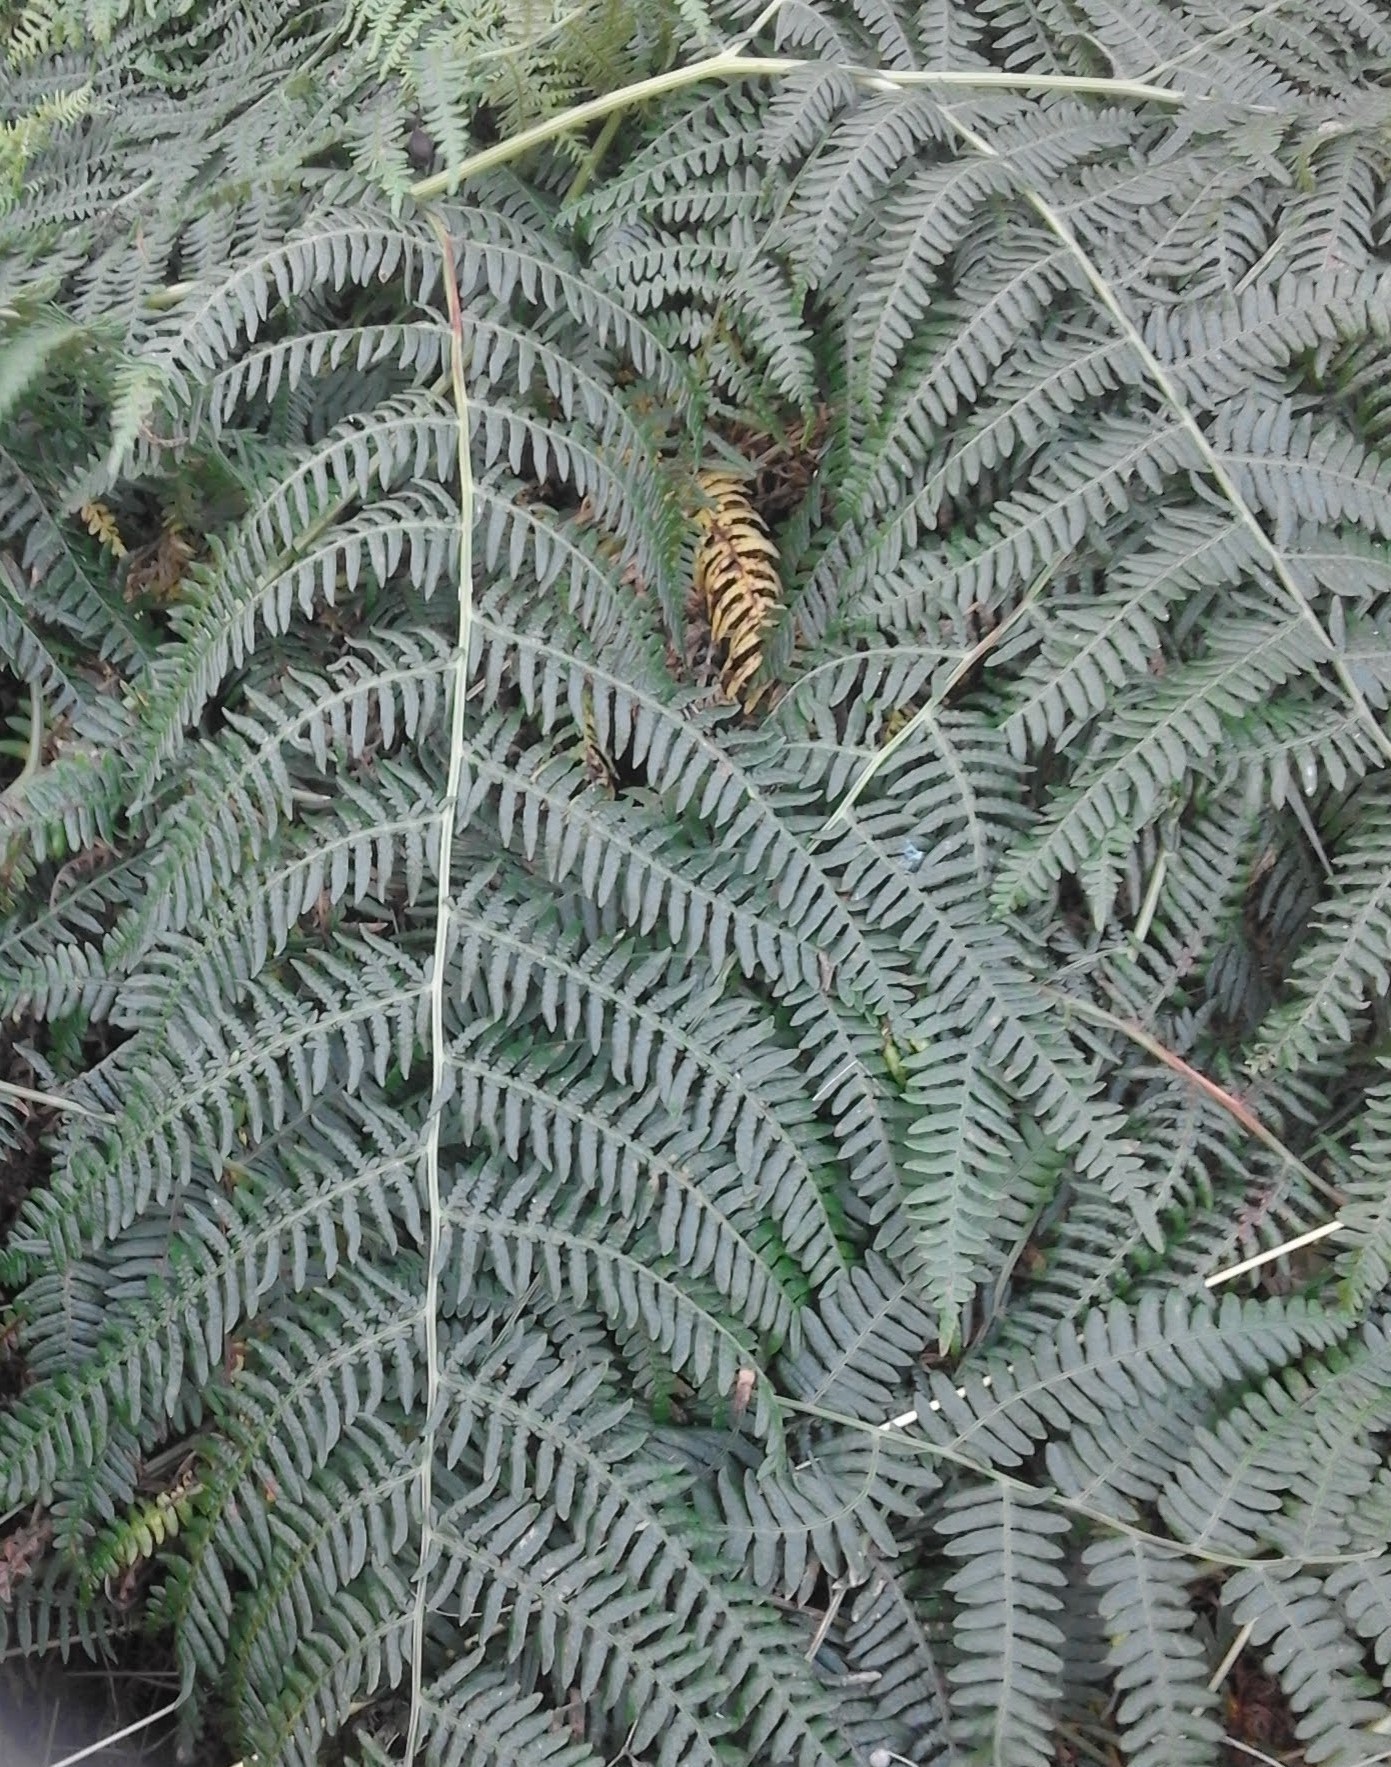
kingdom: Plantae
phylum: Tracheophyta
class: Polypodiopsida
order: Polypodiales
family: Dennstaedtiaceae
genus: Pteridium
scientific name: Pteridium aquilinum
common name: Bracken
